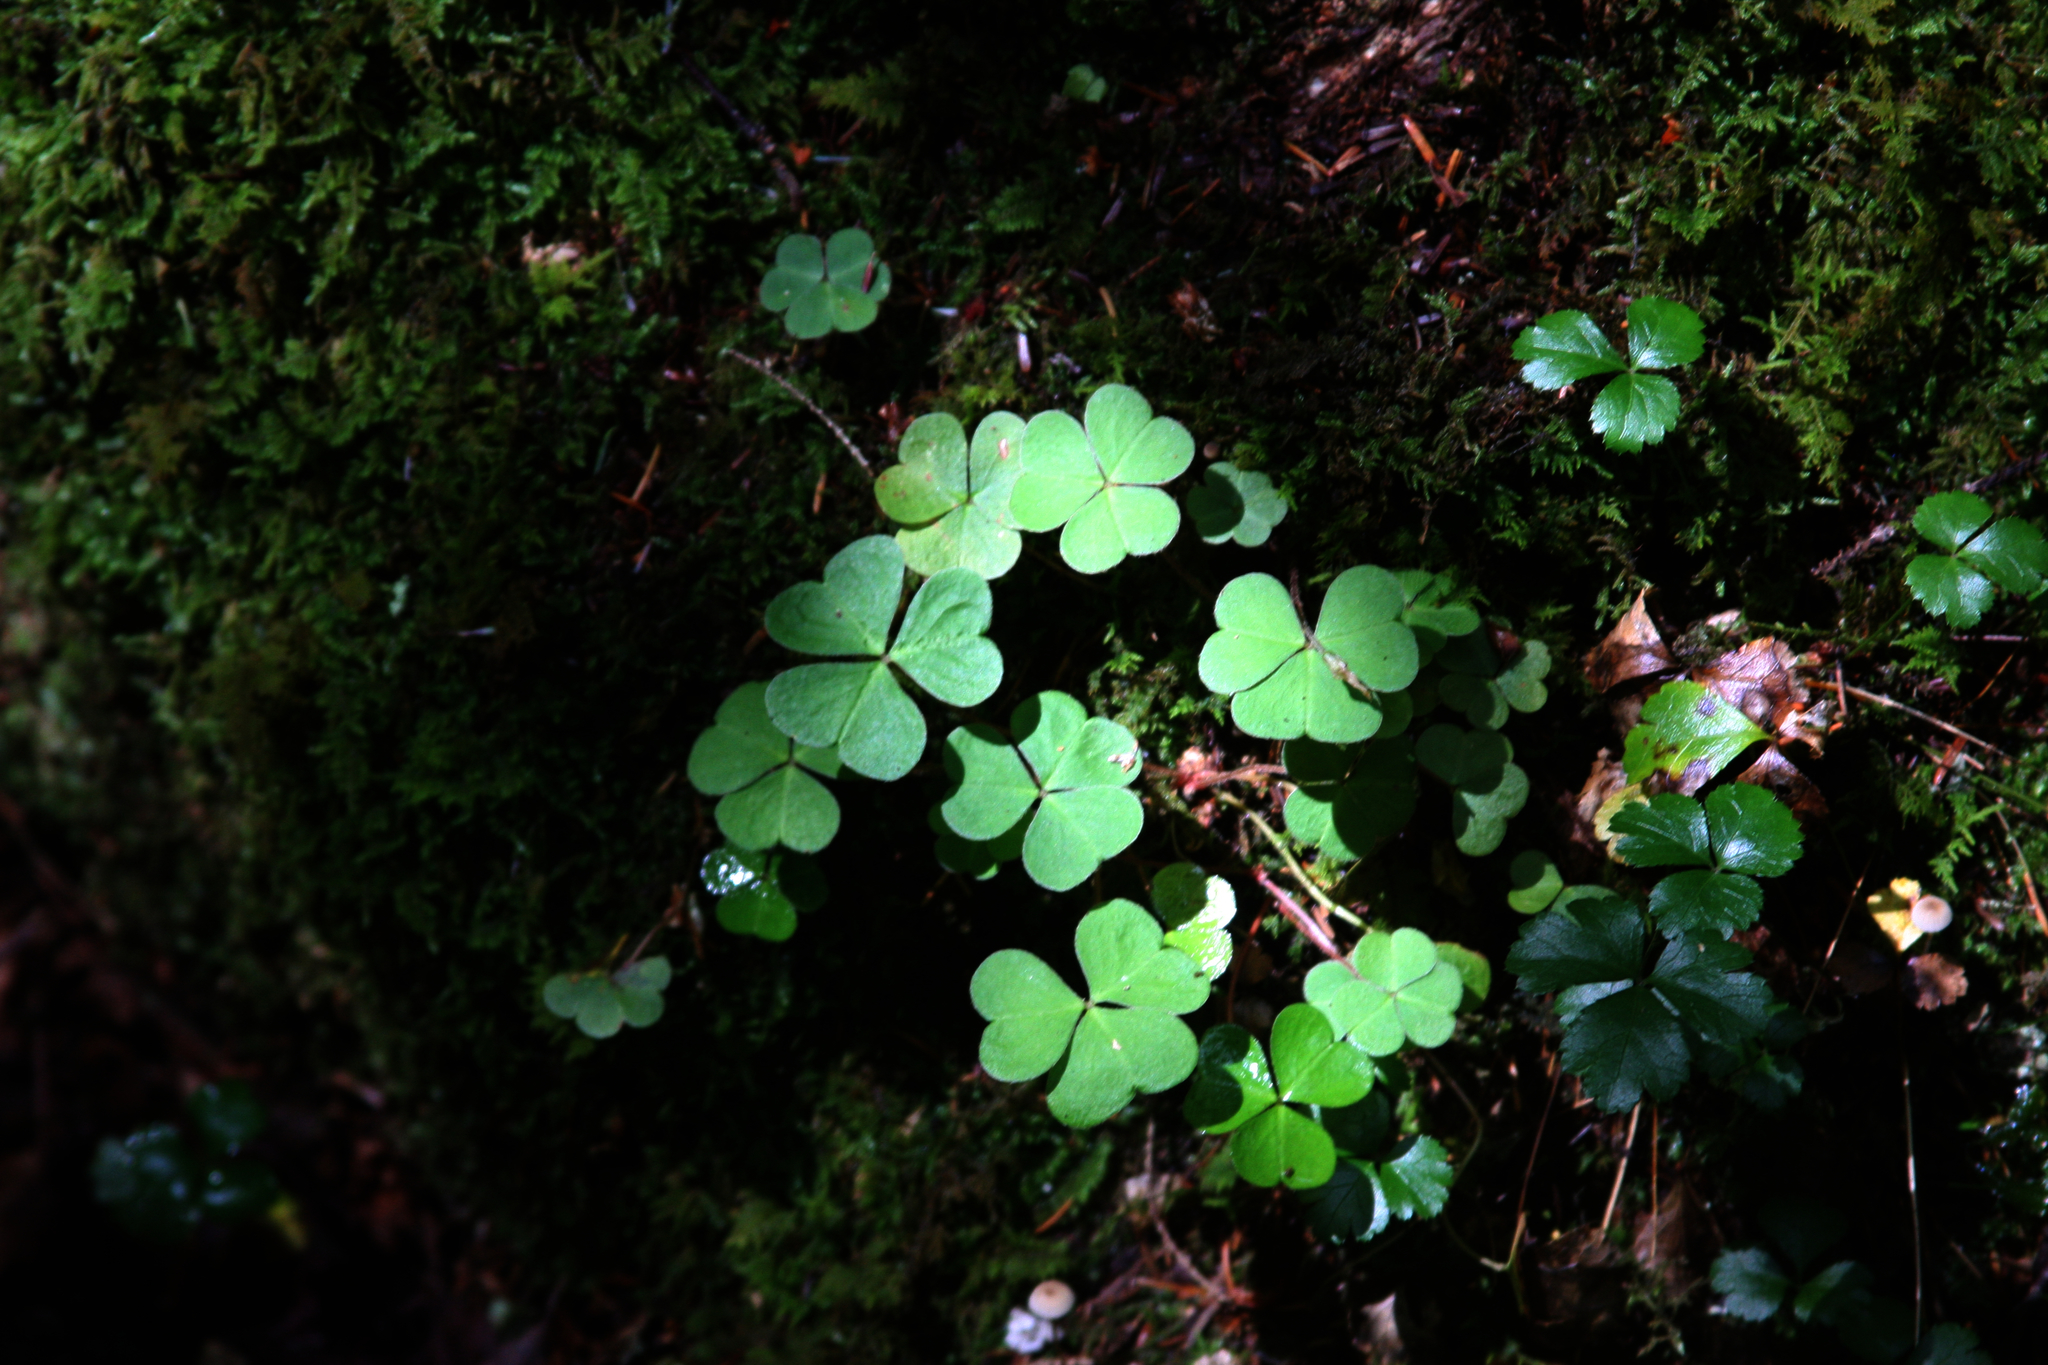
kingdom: Plantae
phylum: Tracheophyta
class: Magnoliopsida
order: Ranunculales
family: Ranunculaceae
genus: Coptis
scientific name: Coptis trifolia
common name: Canker-root
